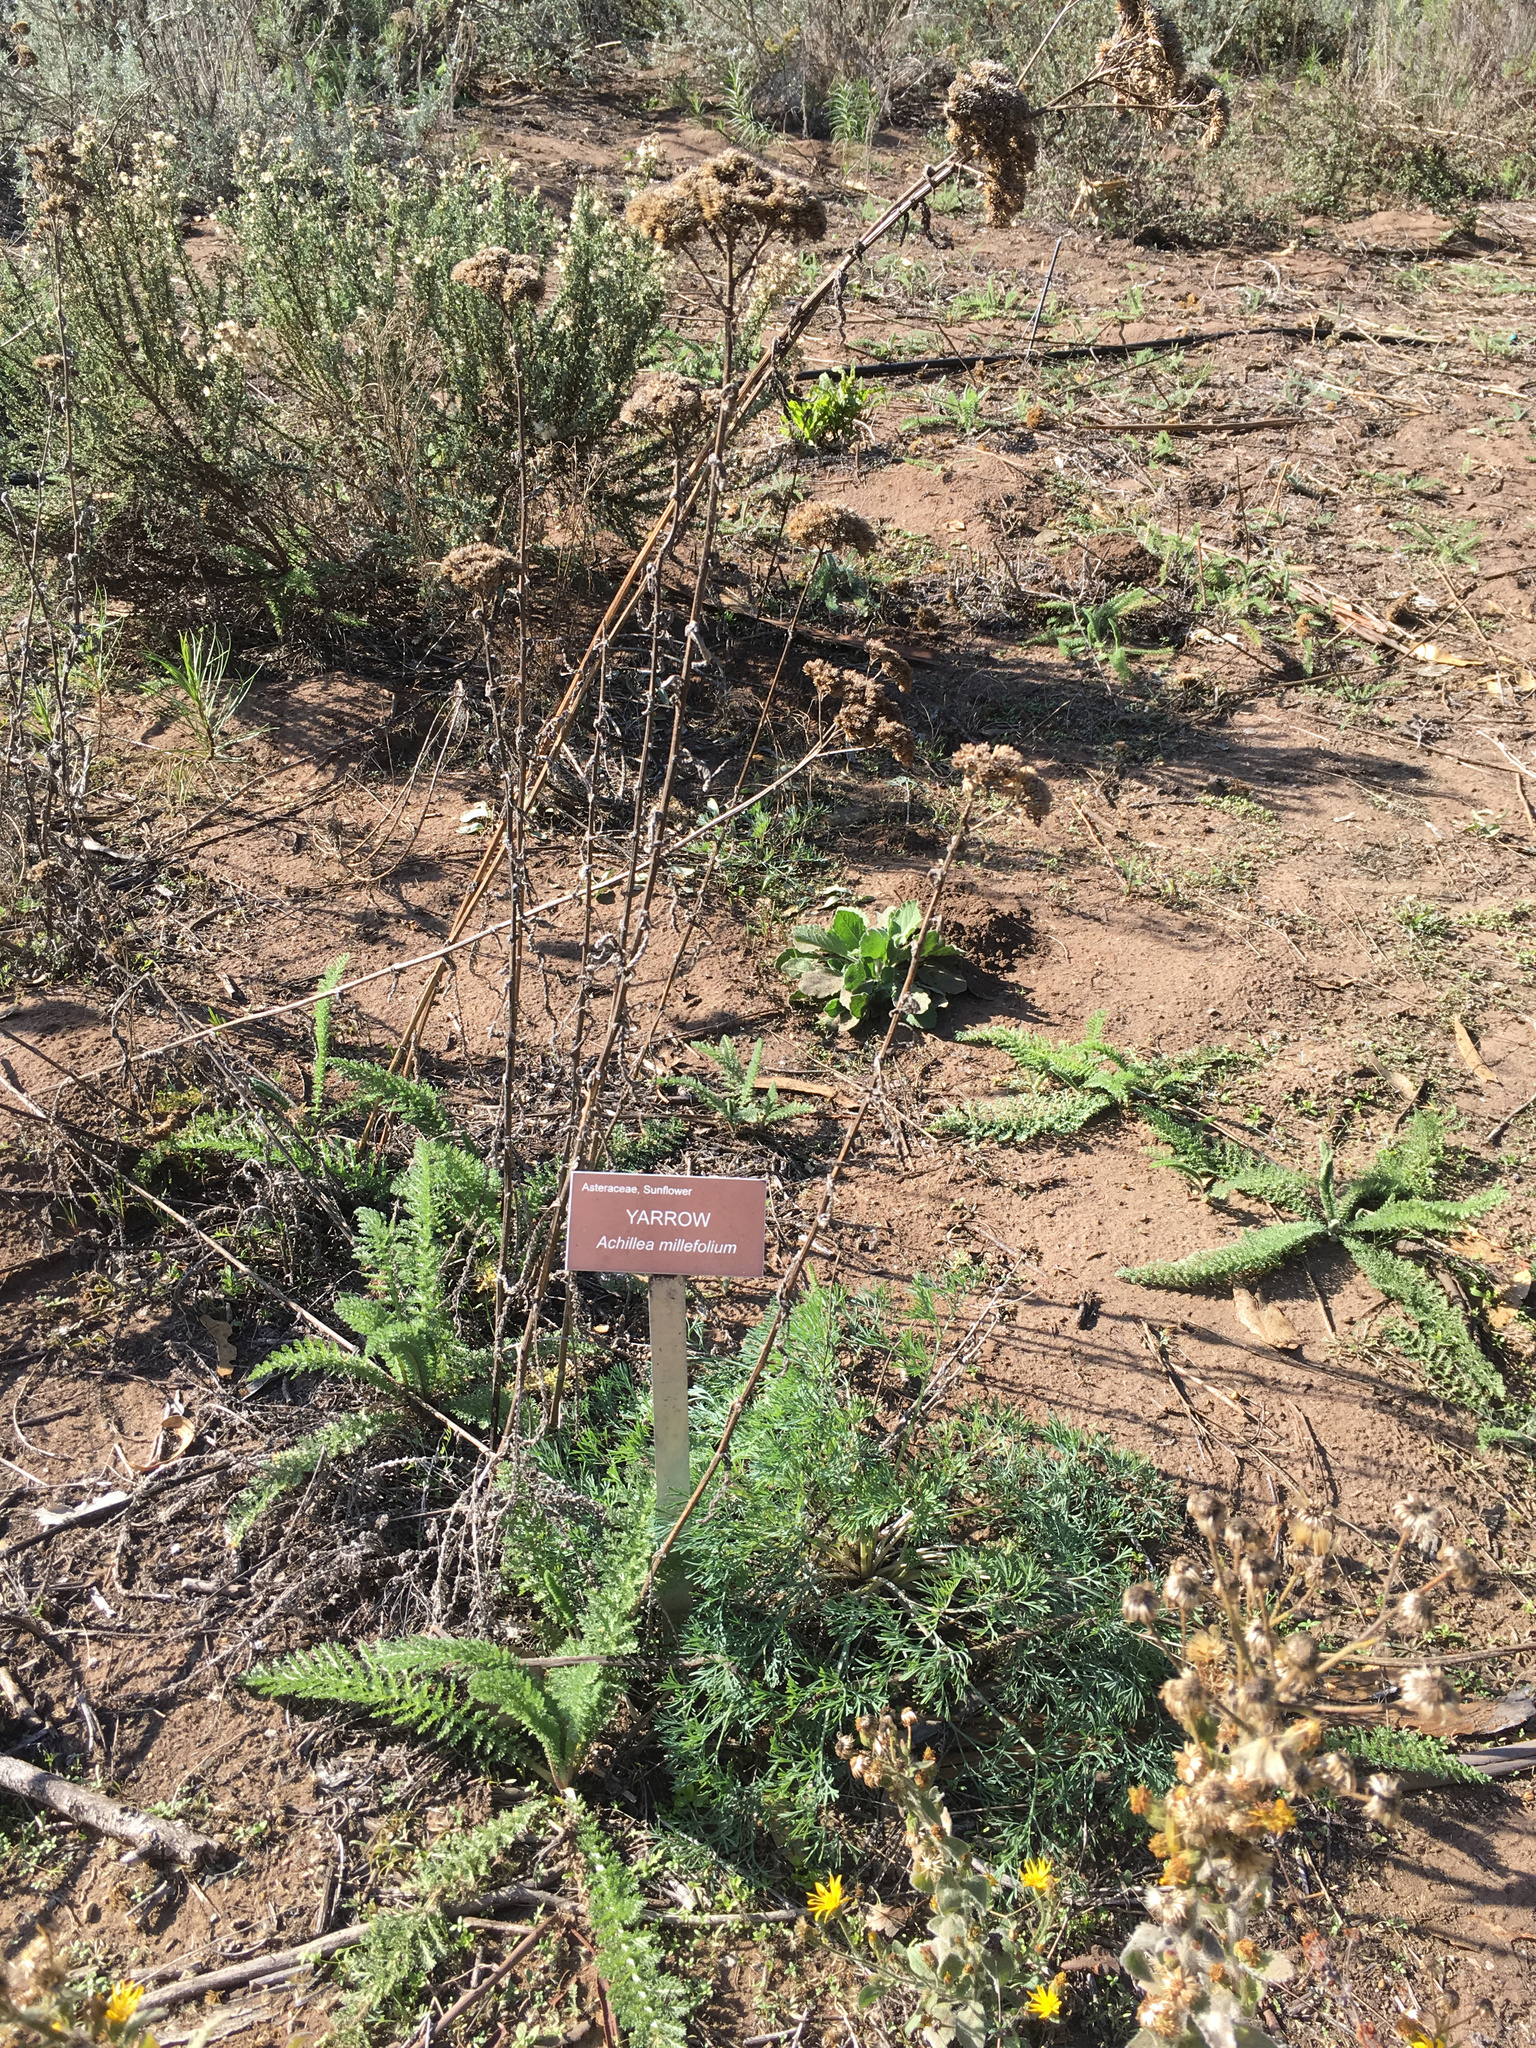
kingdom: Plantae
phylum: Tracheophyta
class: Magnoliopsida
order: Asterales
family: Asteraceae
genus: Achillea
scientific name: Achillea millefolium
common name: Yarrow
